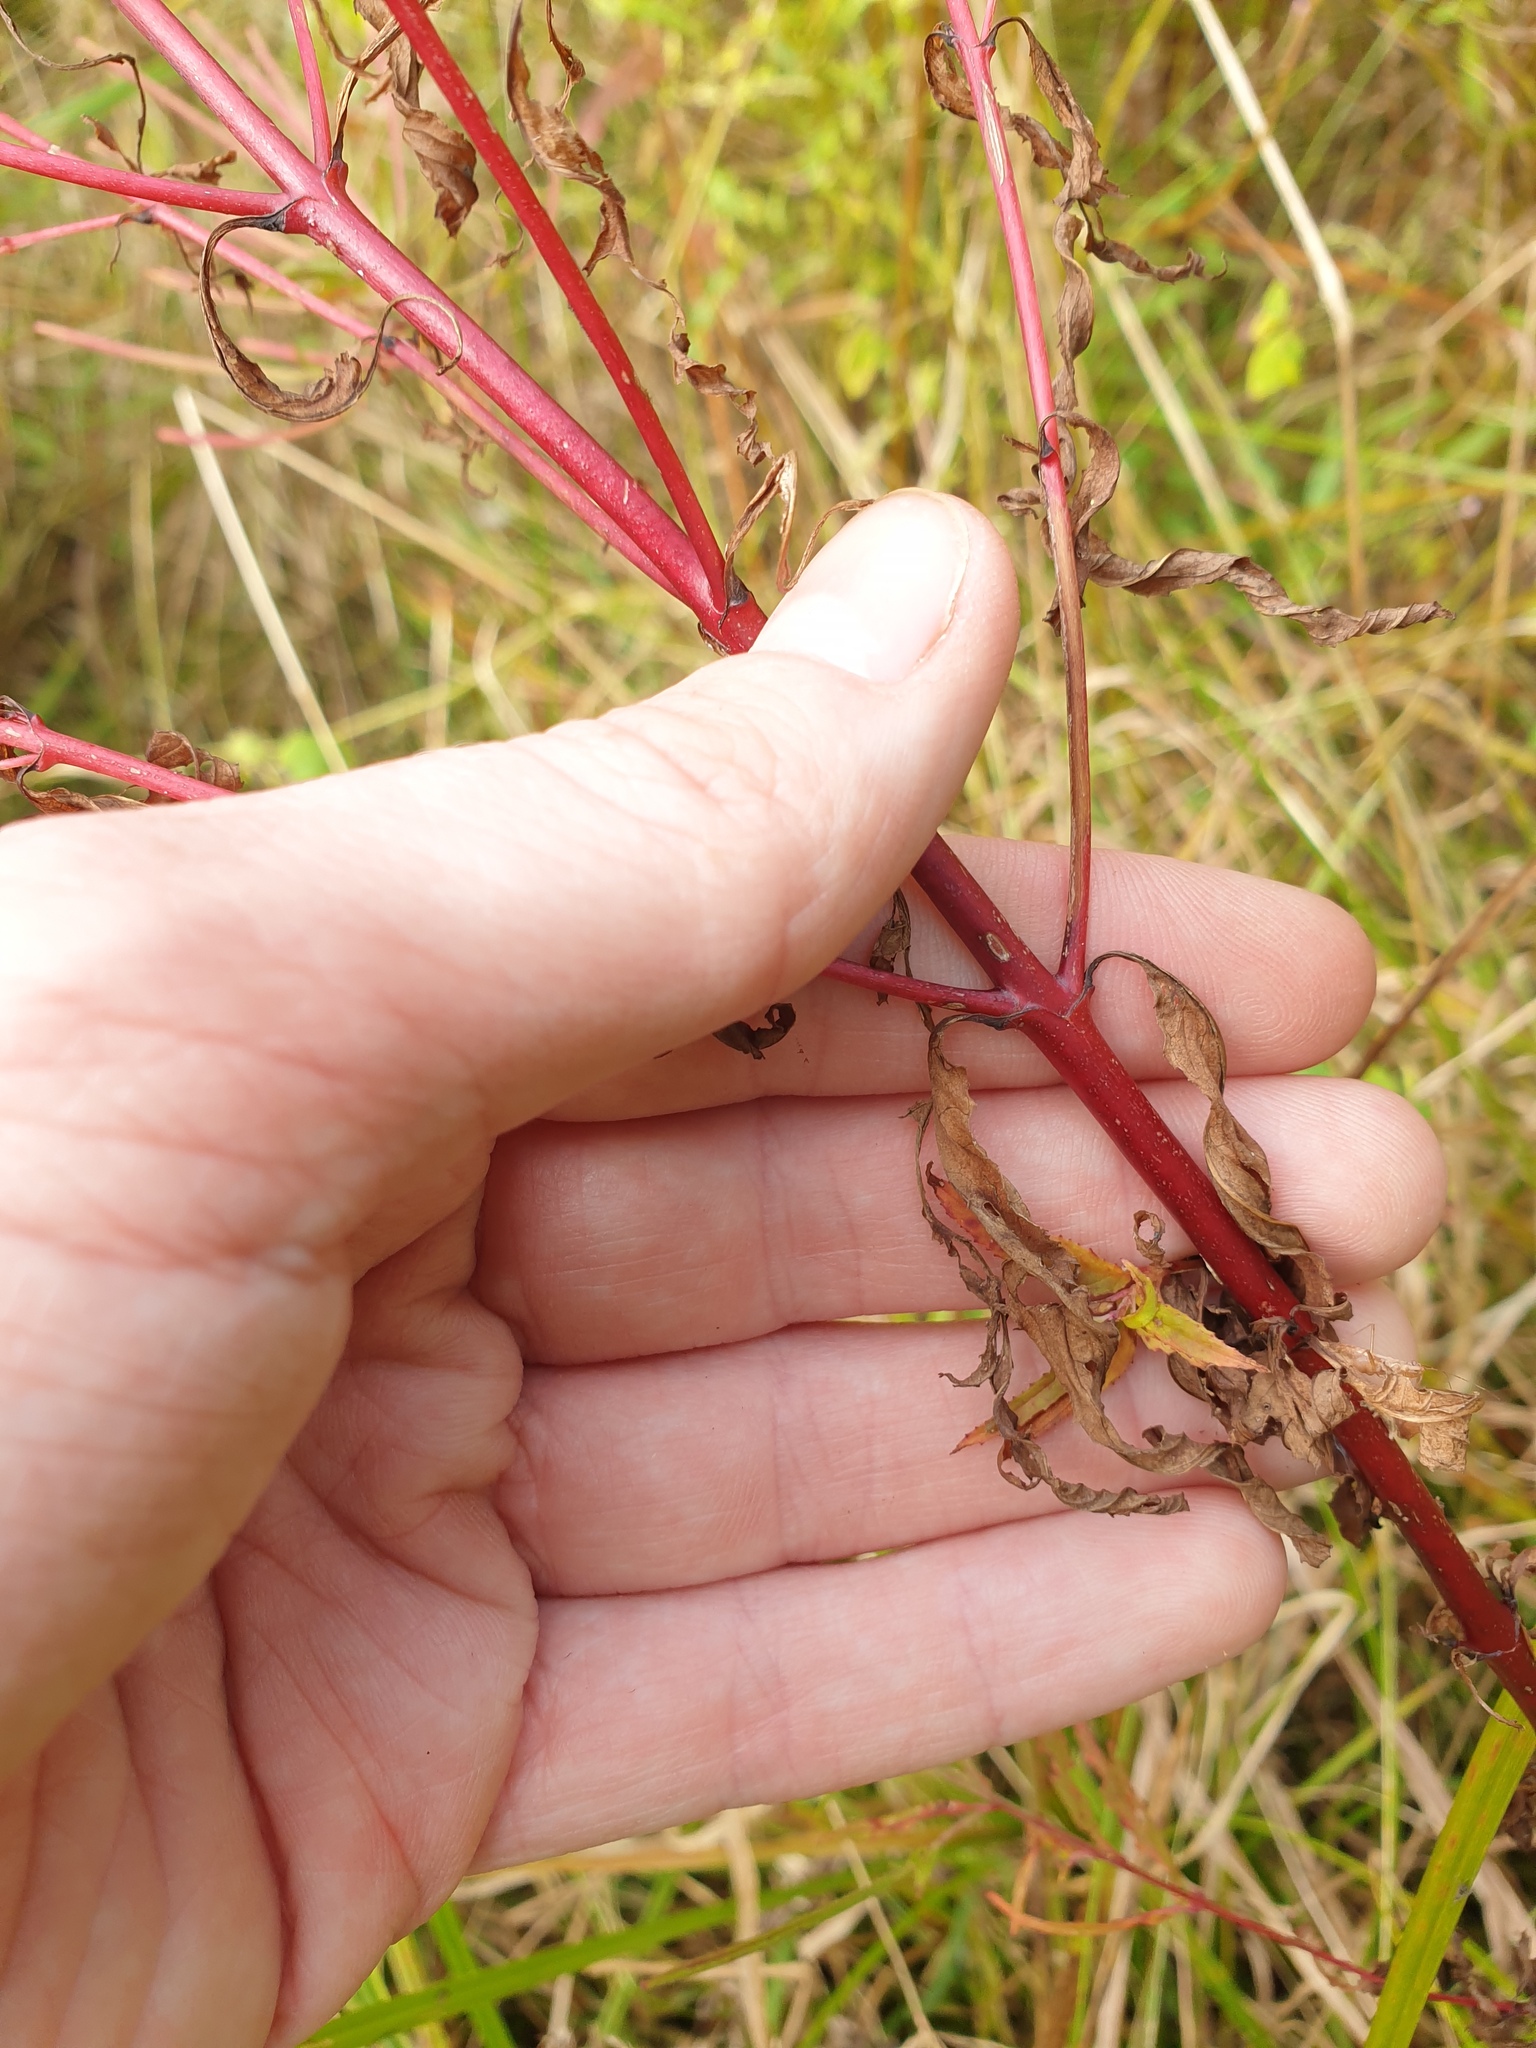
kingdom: Plantae
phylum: Tracheophyta
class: Magnoliopsida
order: Myrtales
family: Onagraceae
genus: Epilobium
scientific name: Epilobium coloratum
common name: Bronze willowherb
